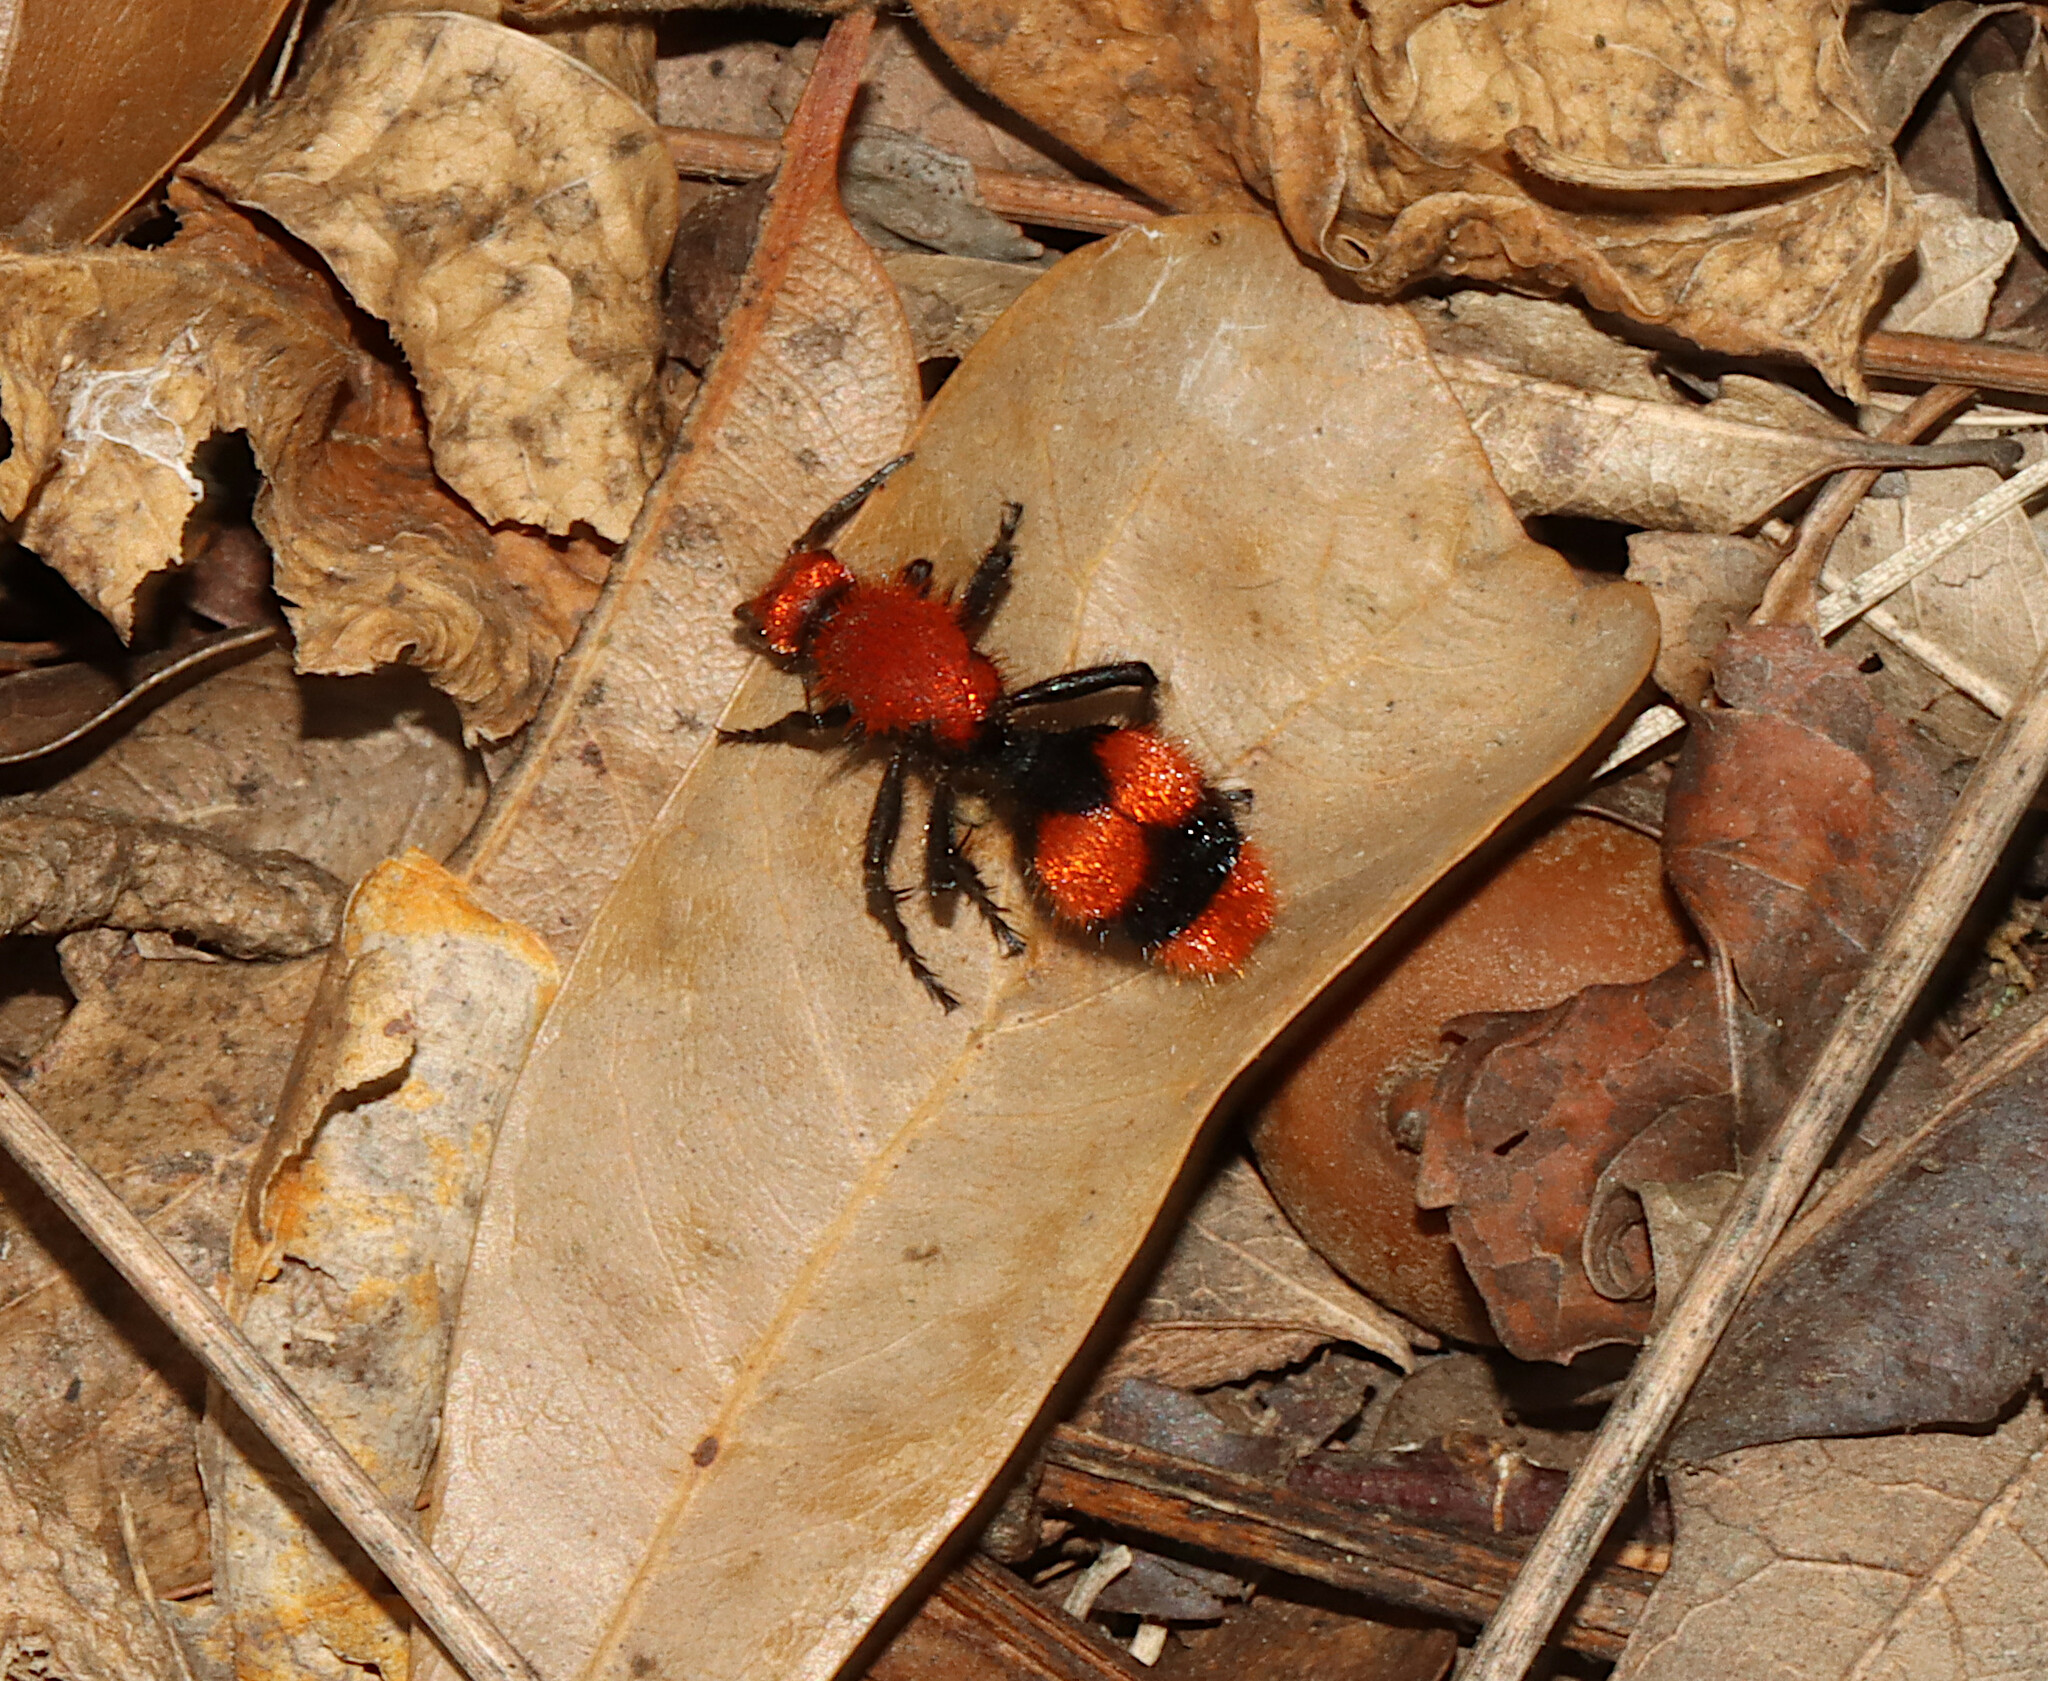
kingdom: Animalia
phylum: Arthropoda
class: Insecta
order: Hymenoptera
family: Mutillidae
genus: Dasymutilla
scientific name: Dasymutilla occidentalis
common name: Common eastern velvet ant
